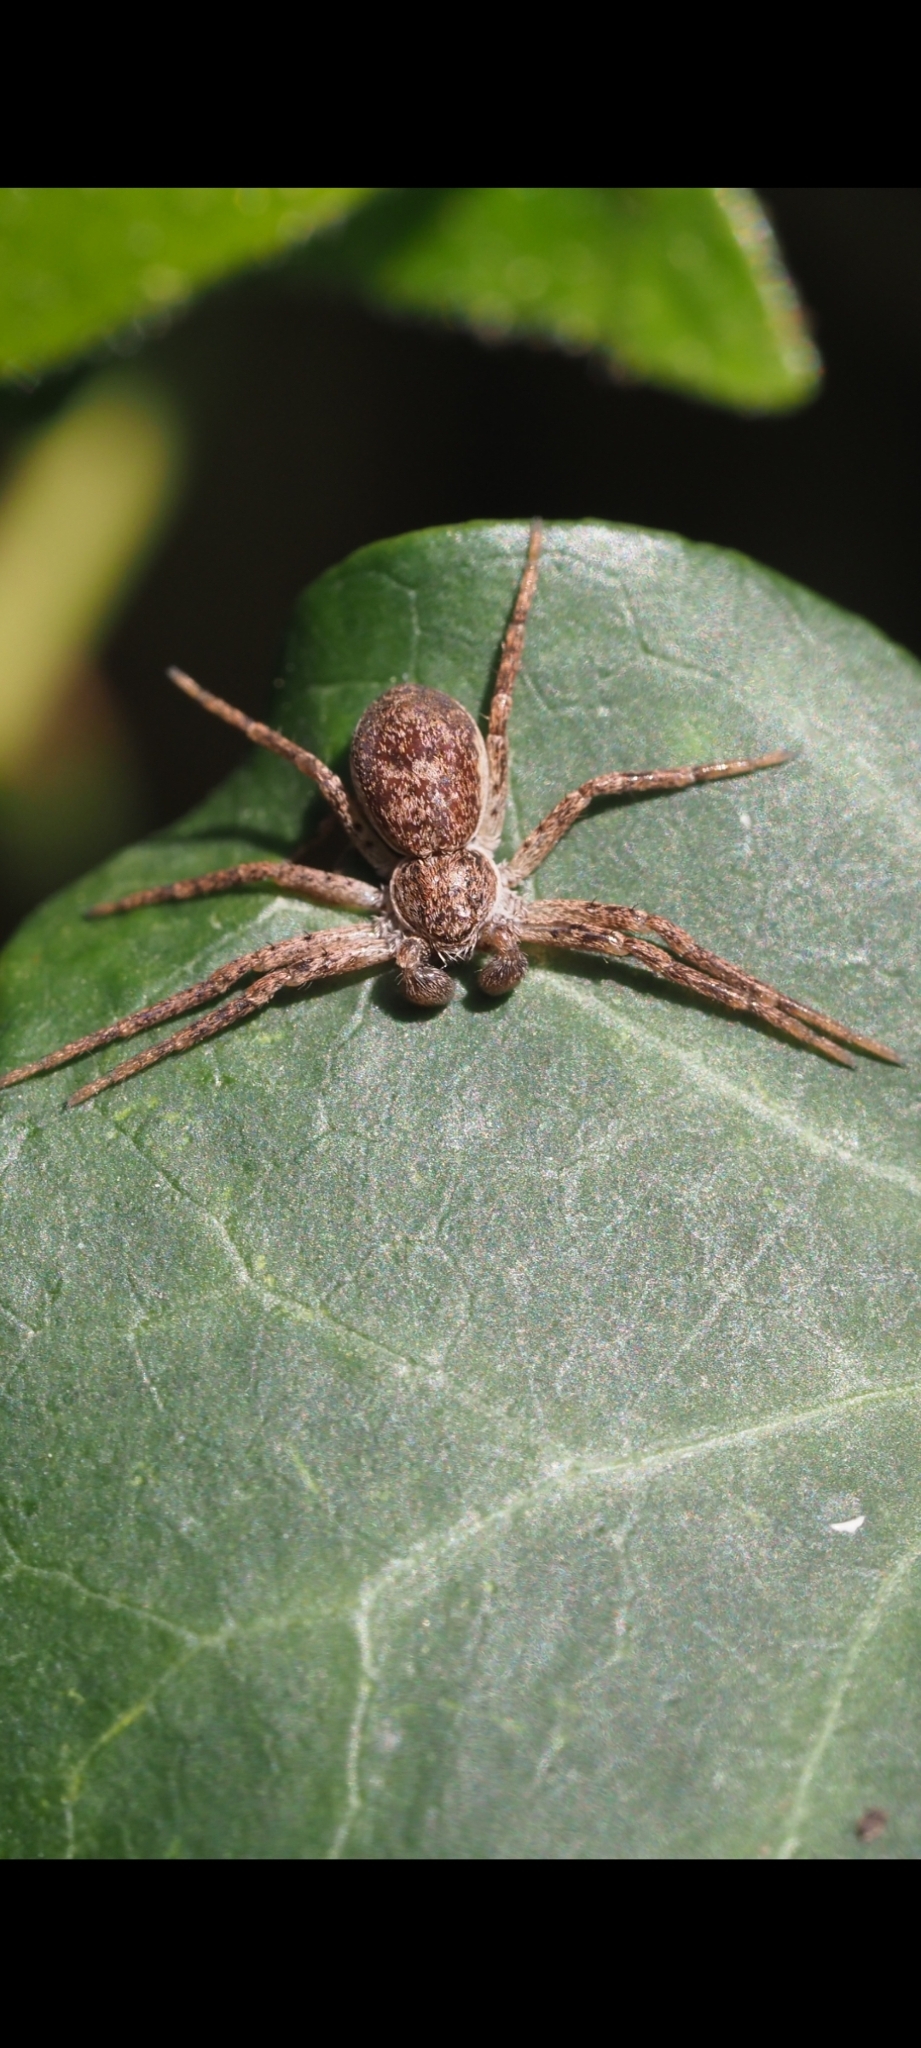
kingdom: Animalia
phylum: Arthropoda
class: Arachnida
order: Araneae
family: Philodromidae
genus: Philodromus
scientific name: Philodromus dispar
